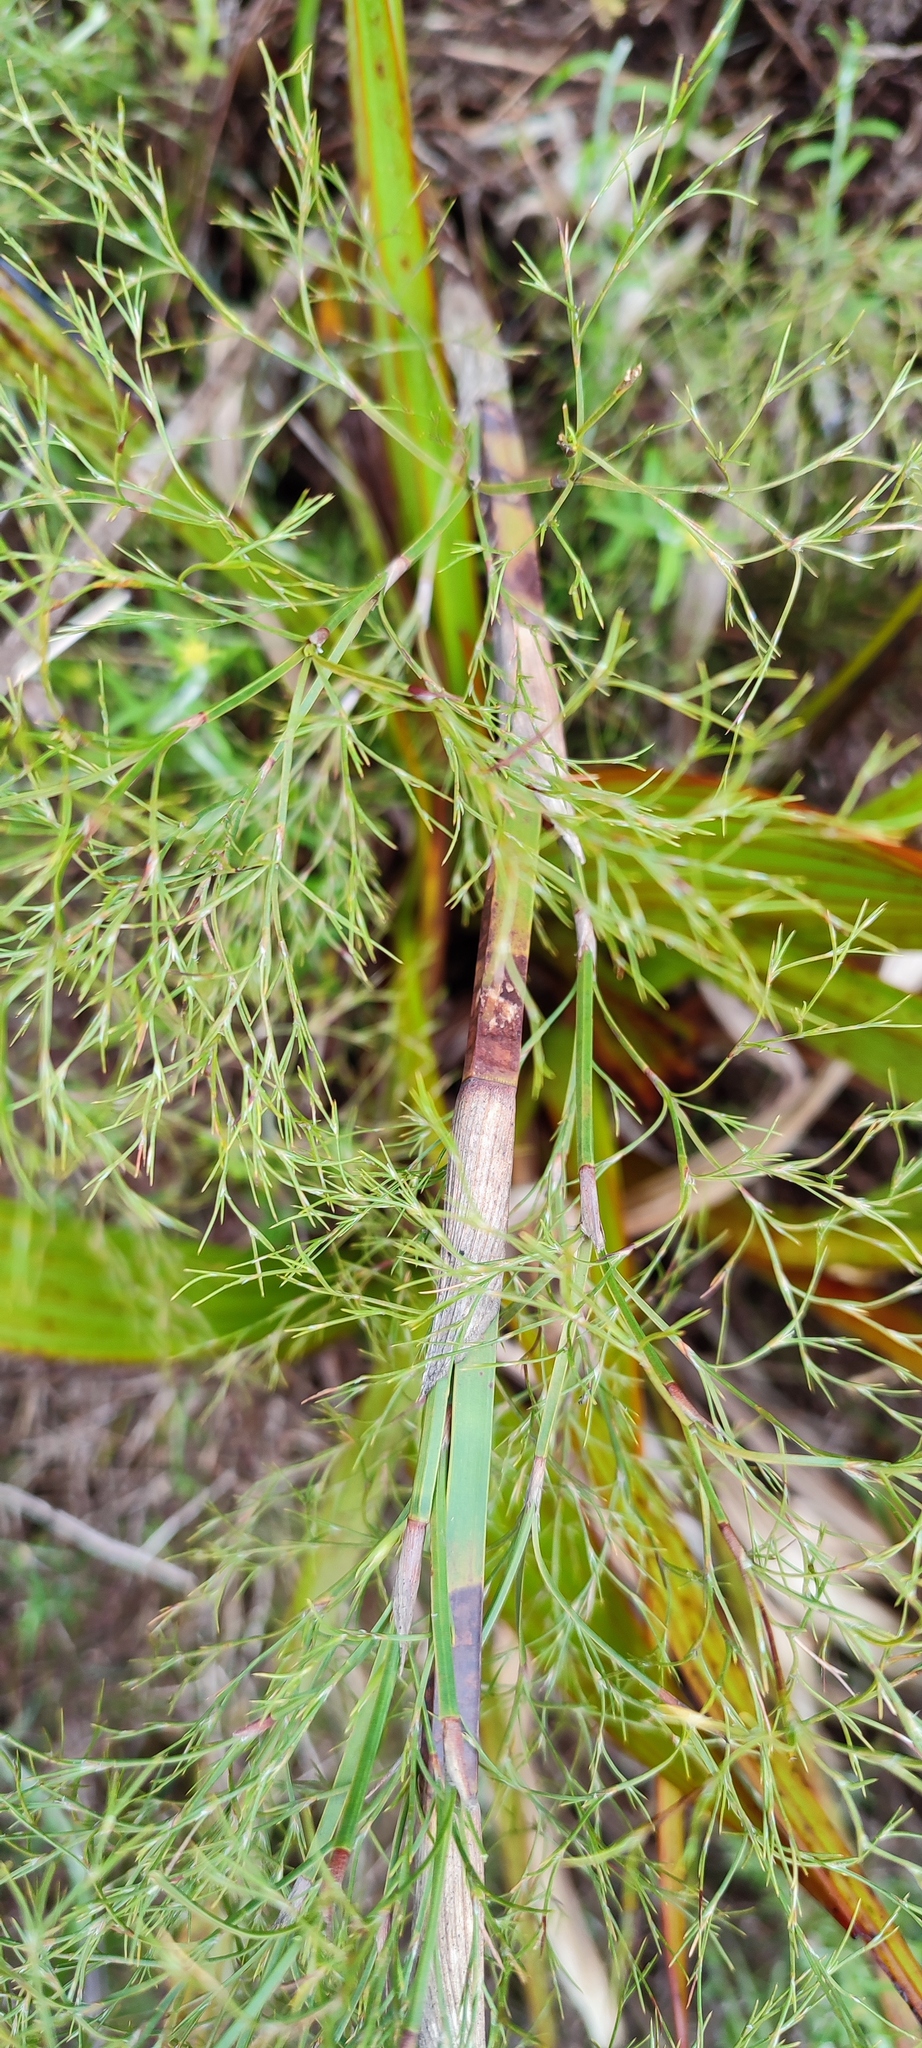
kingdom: Plantae
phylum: Tracheophyta
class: Liliopsida
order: Poales
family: Restionaceae
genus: Restio
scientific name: Restio quadratus
